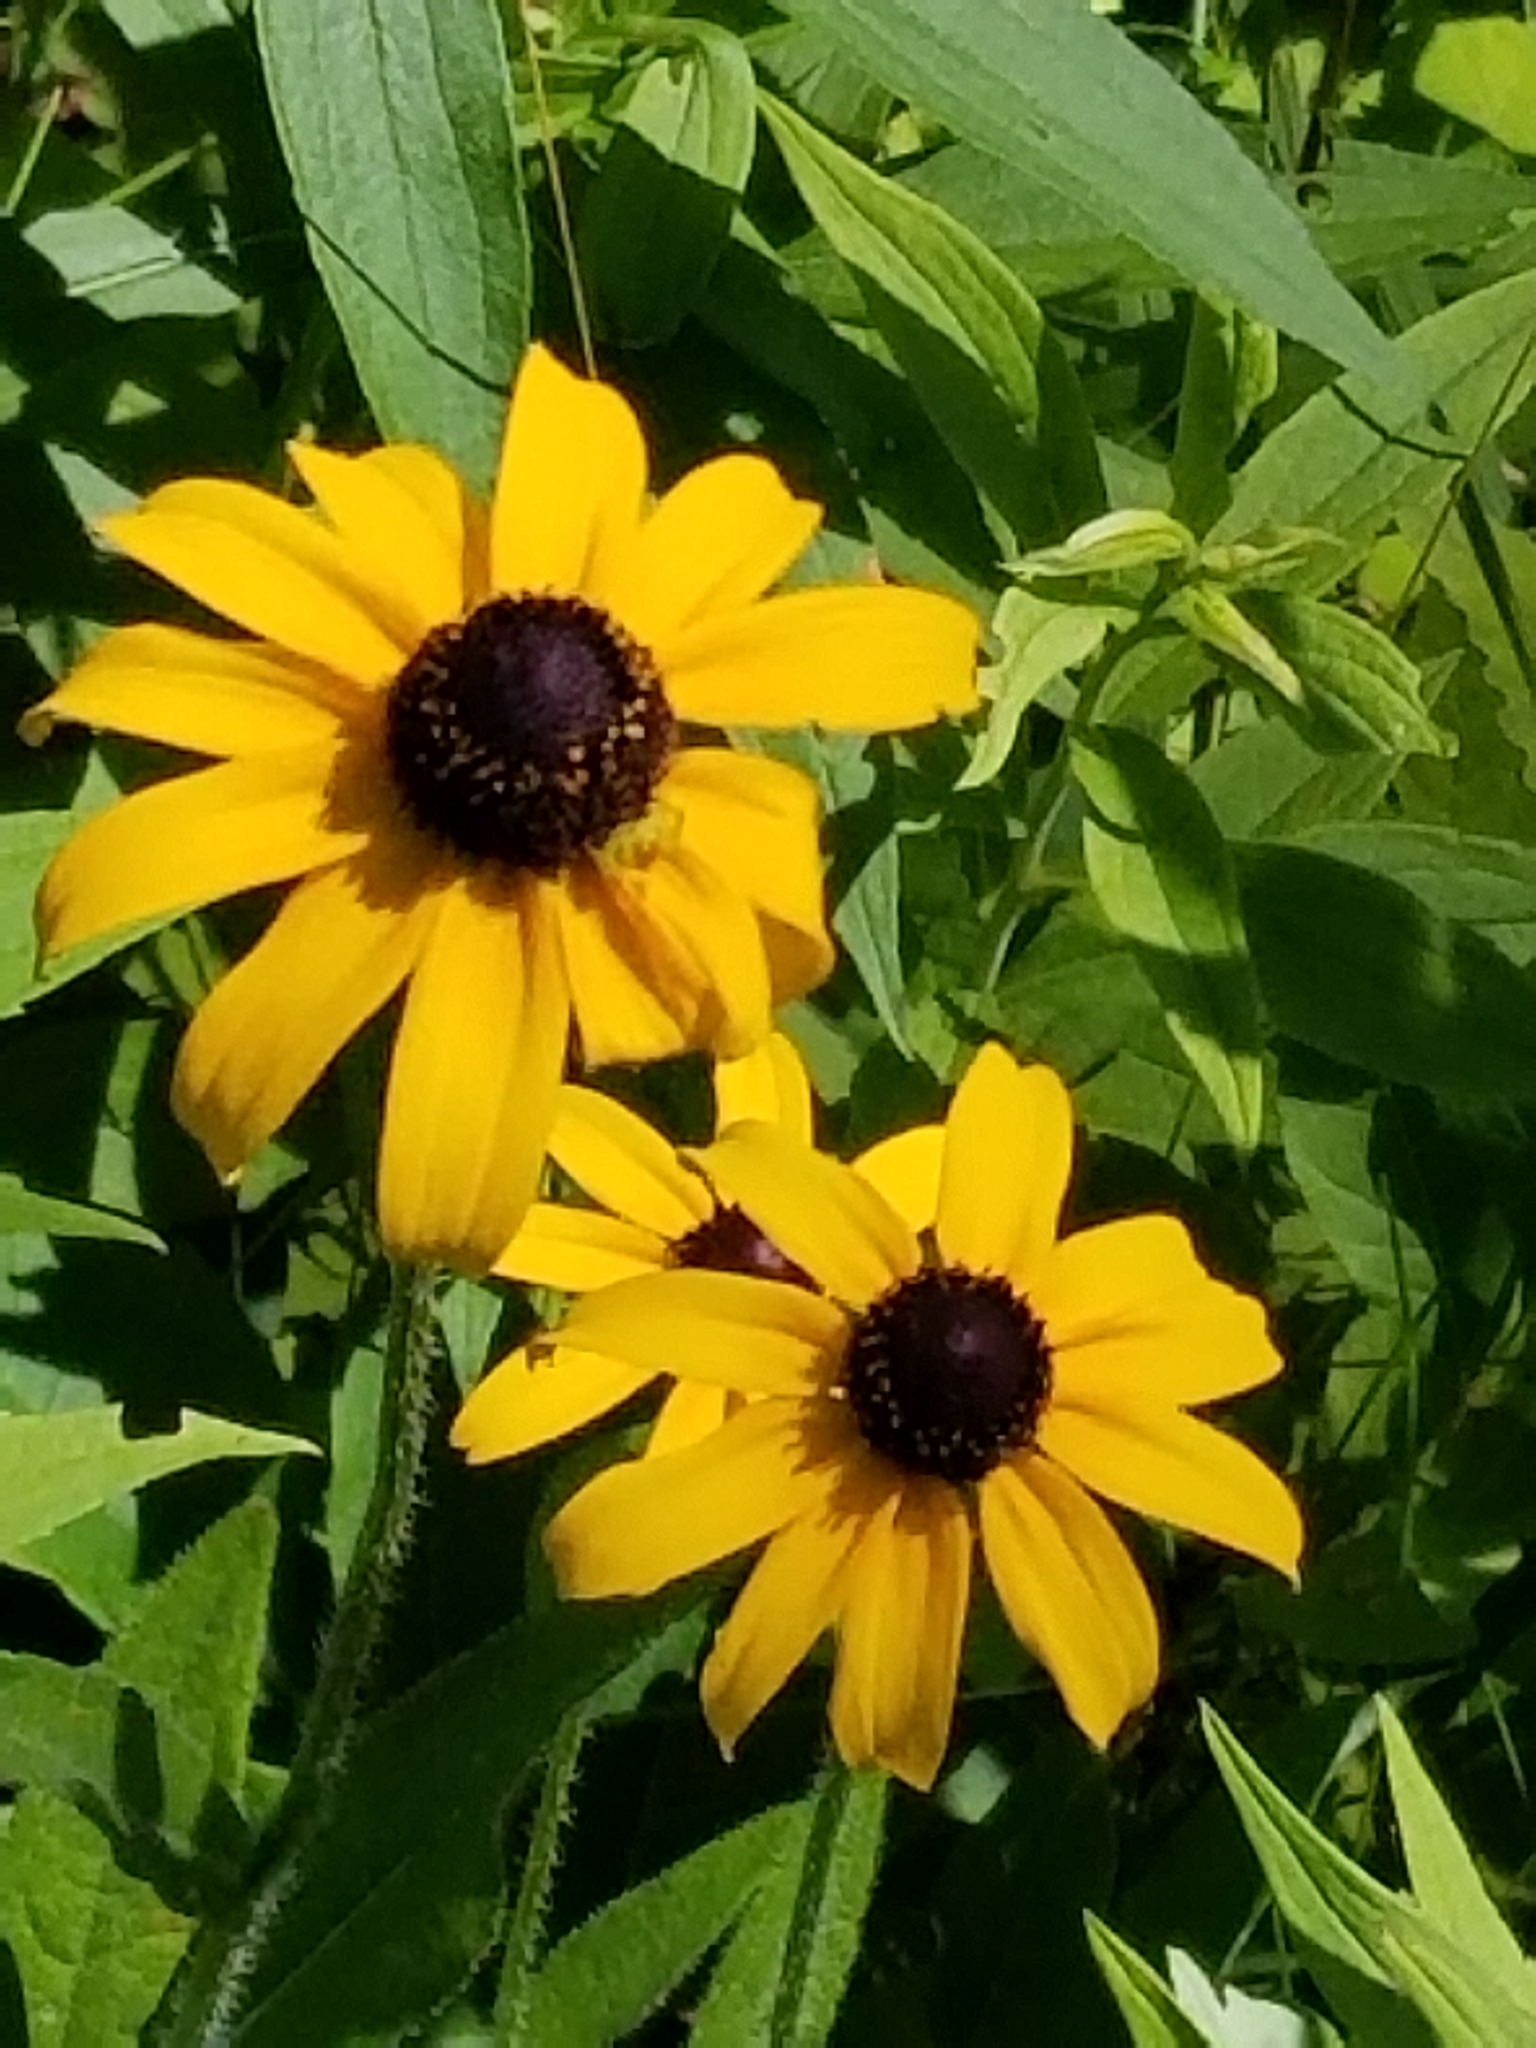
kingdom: Plantae
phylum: Tracheophyta
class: Magnoliopsida
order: Asterales
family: Asteraceae
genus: Rudbeckia
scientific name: Rudbeckia hirta
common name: Black-eyed-susan
